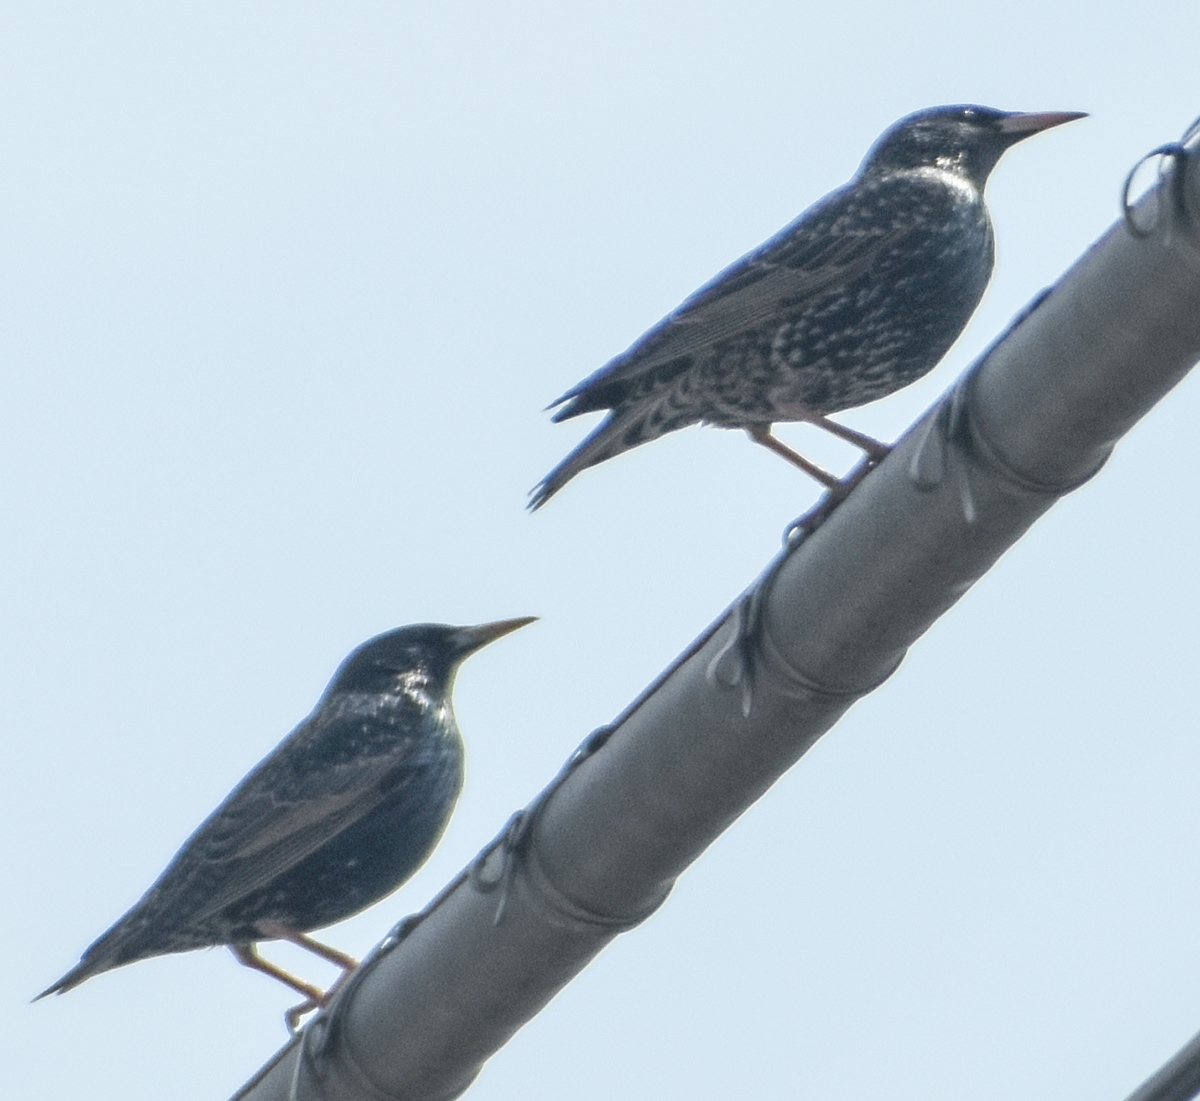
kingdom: Animalia
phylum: Chordata
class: Aves
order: Passeriformes
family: Sturnidae
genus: Sturnus
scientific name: Sturnus vulgaris
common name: Common starling
